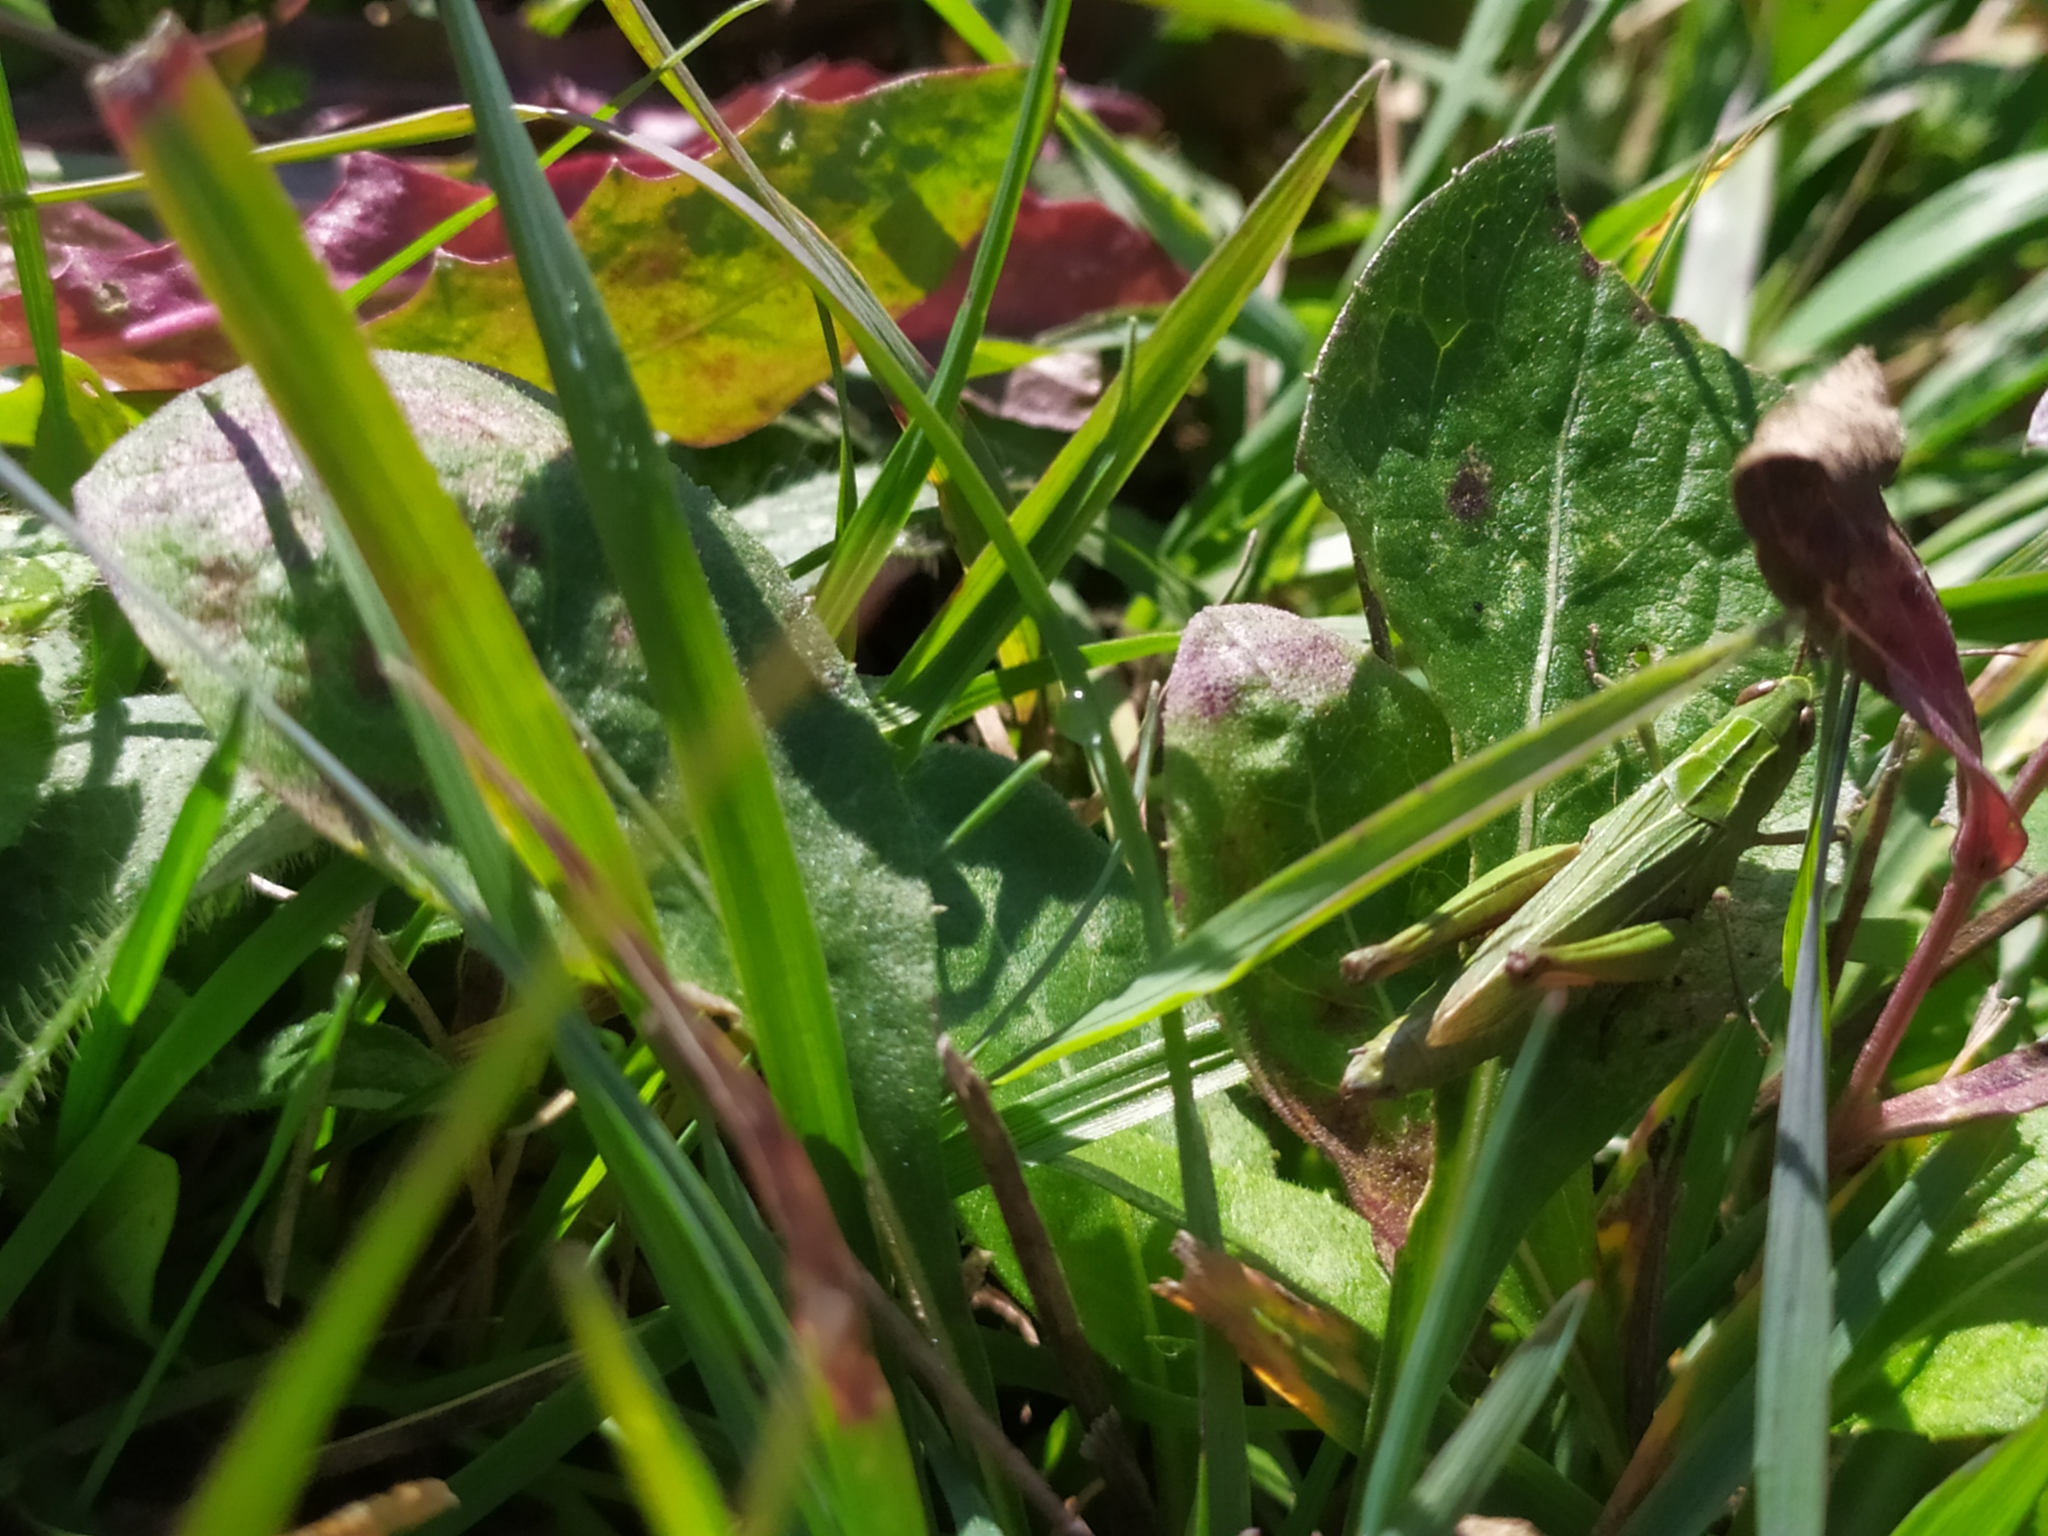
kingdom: Animalia
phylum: Arthropoda
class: Insecta
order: Orthoptera
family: Acrididae
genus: Chorthippus
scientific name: Chorthippus dorsatus
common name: Steppe grasshopper
